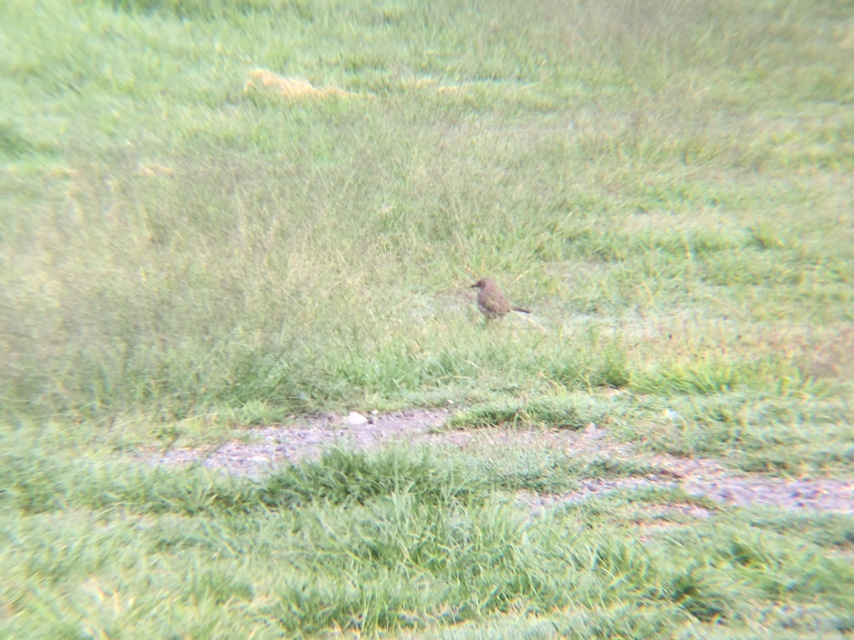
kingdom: Animalia
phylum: Chordata
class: Aves
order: Passeriformes
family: Mimidae
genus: Toxostoma
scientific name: Toxostoma curvirostre
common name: Curve-billed thrasher
